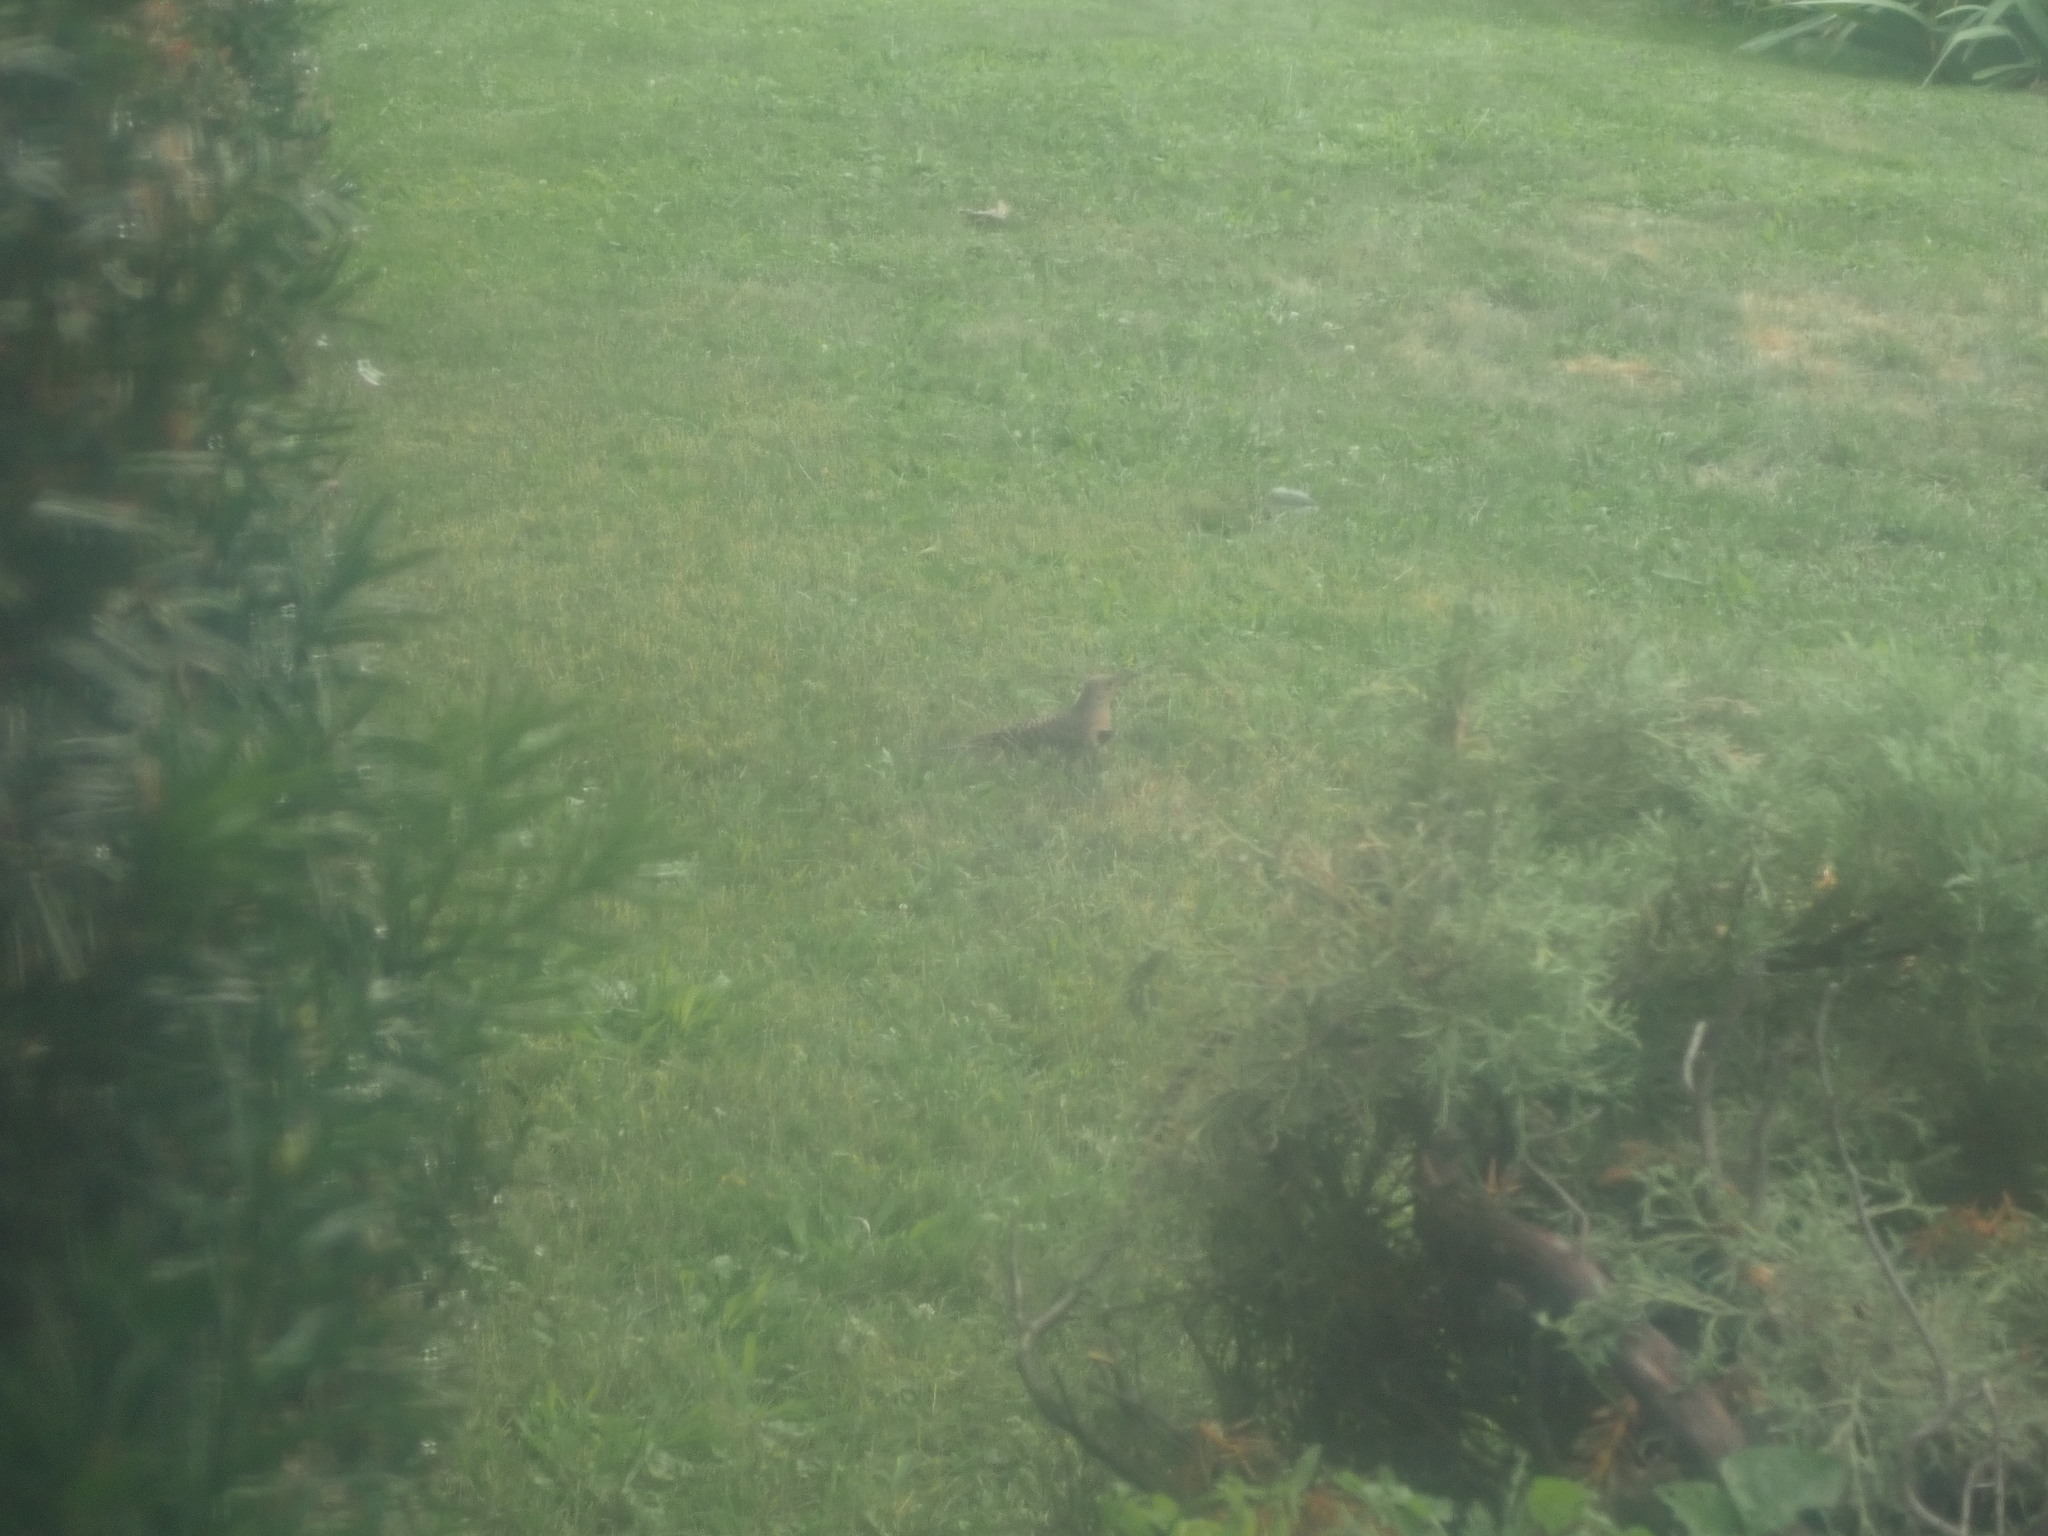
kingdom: Animalia
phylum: Chordata
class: Aves
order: Piciformes
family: Picidae
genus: Colaptes
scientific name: Colaptes auratus
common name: Northern flicker
